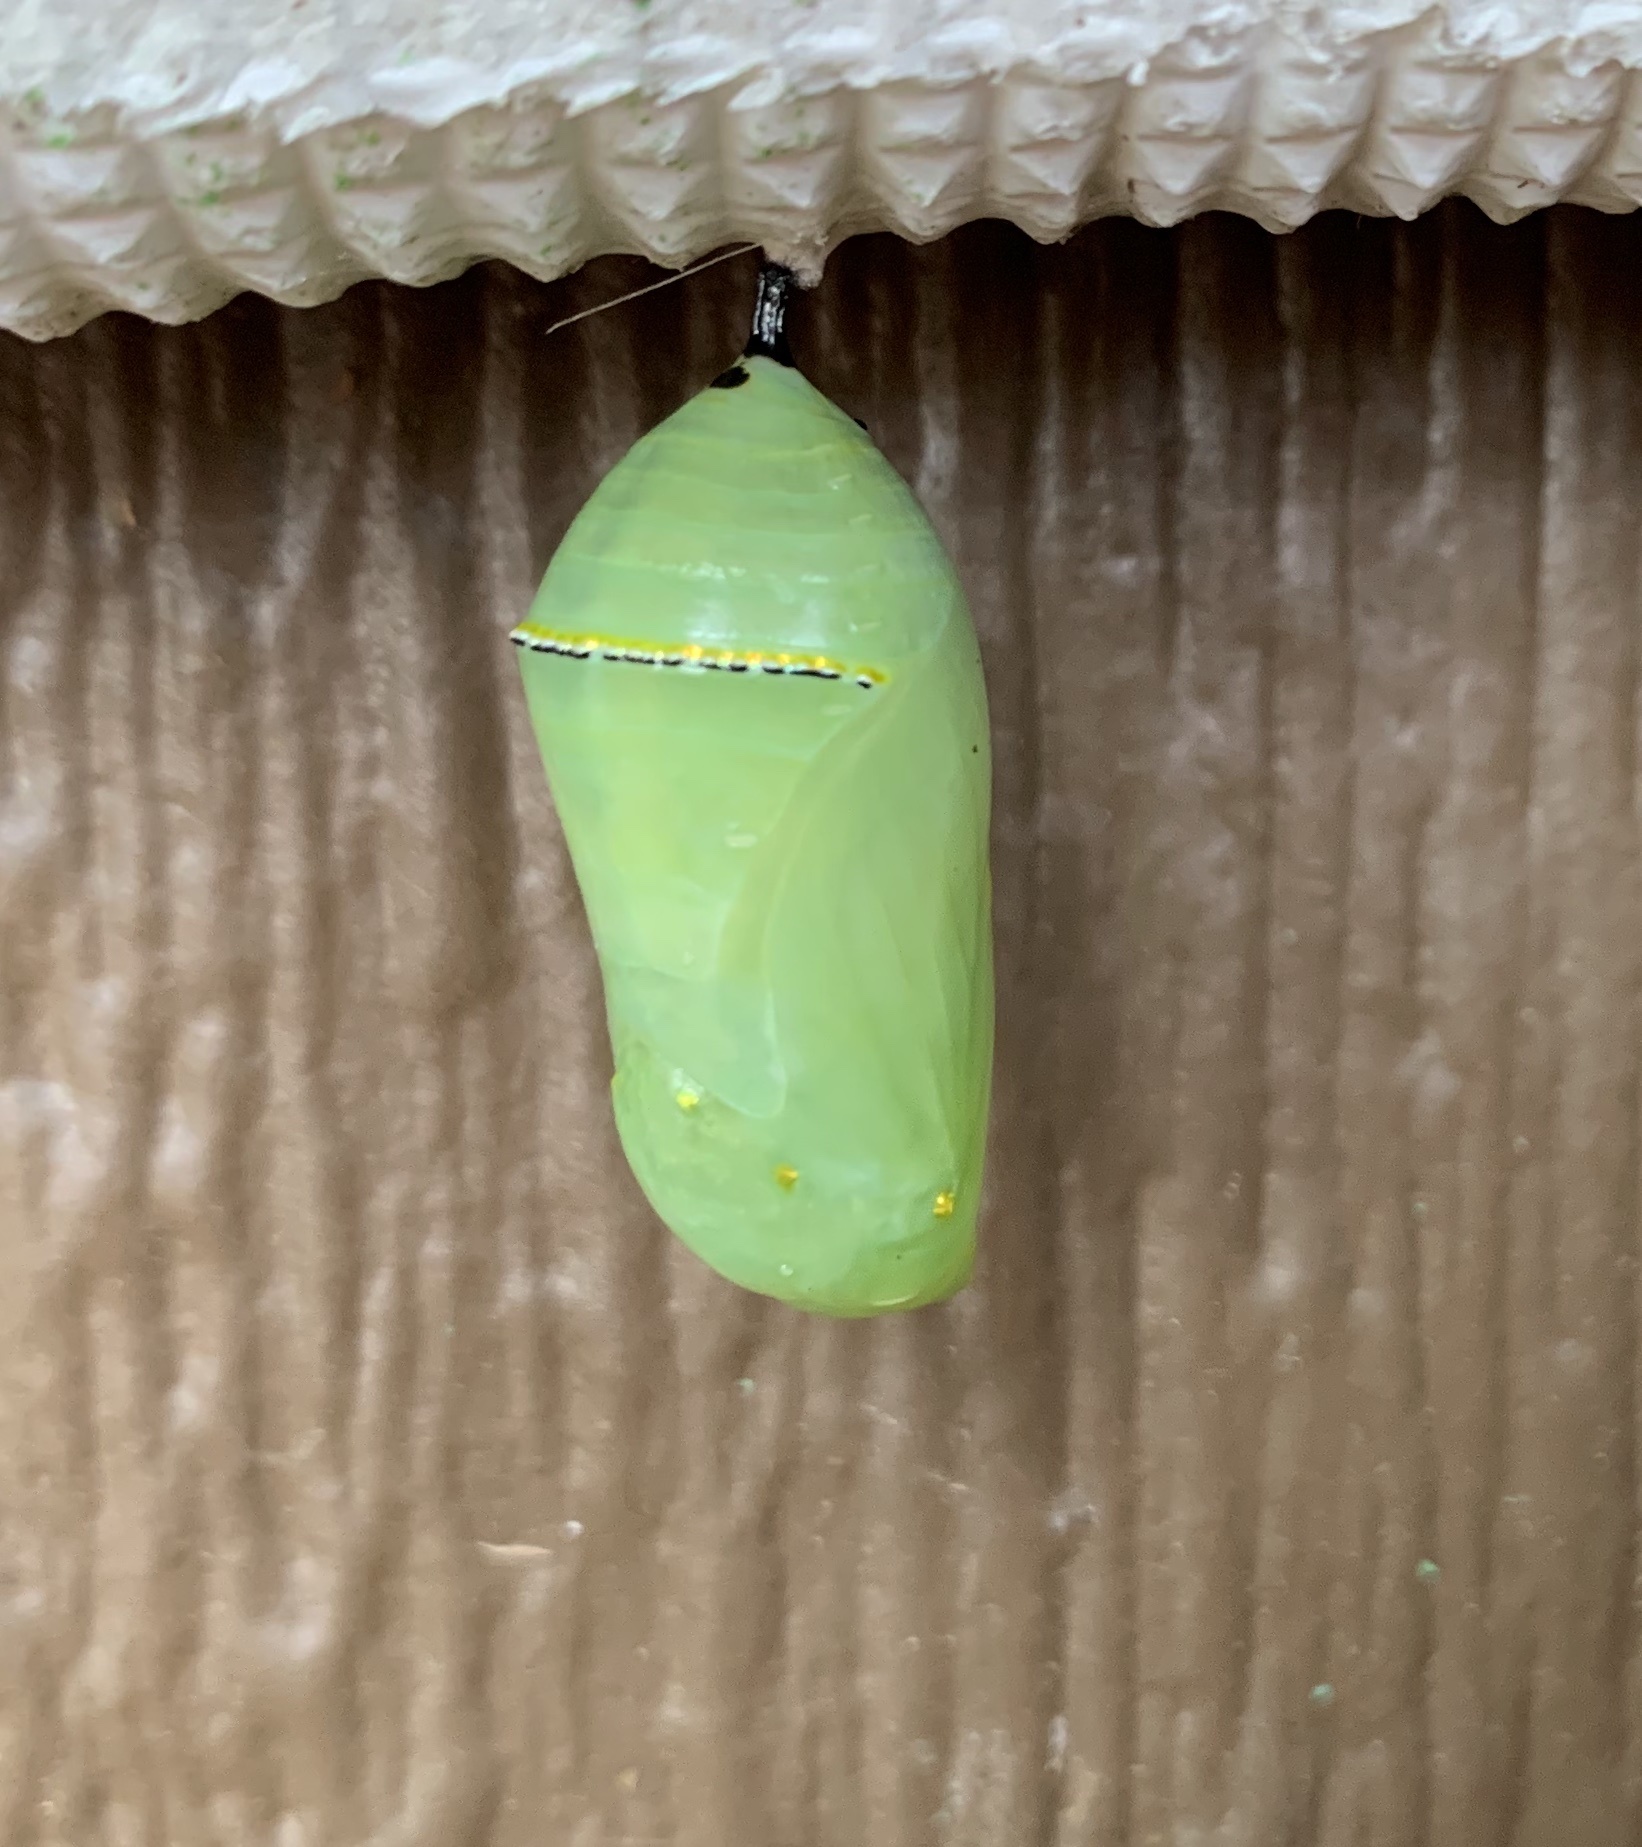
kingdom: Animalia
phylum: Arthropoda
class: Insecta
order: Lepidoptera
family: Nymphalidae
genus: Danaus
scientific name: Danaus plexippus
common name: Monarch
